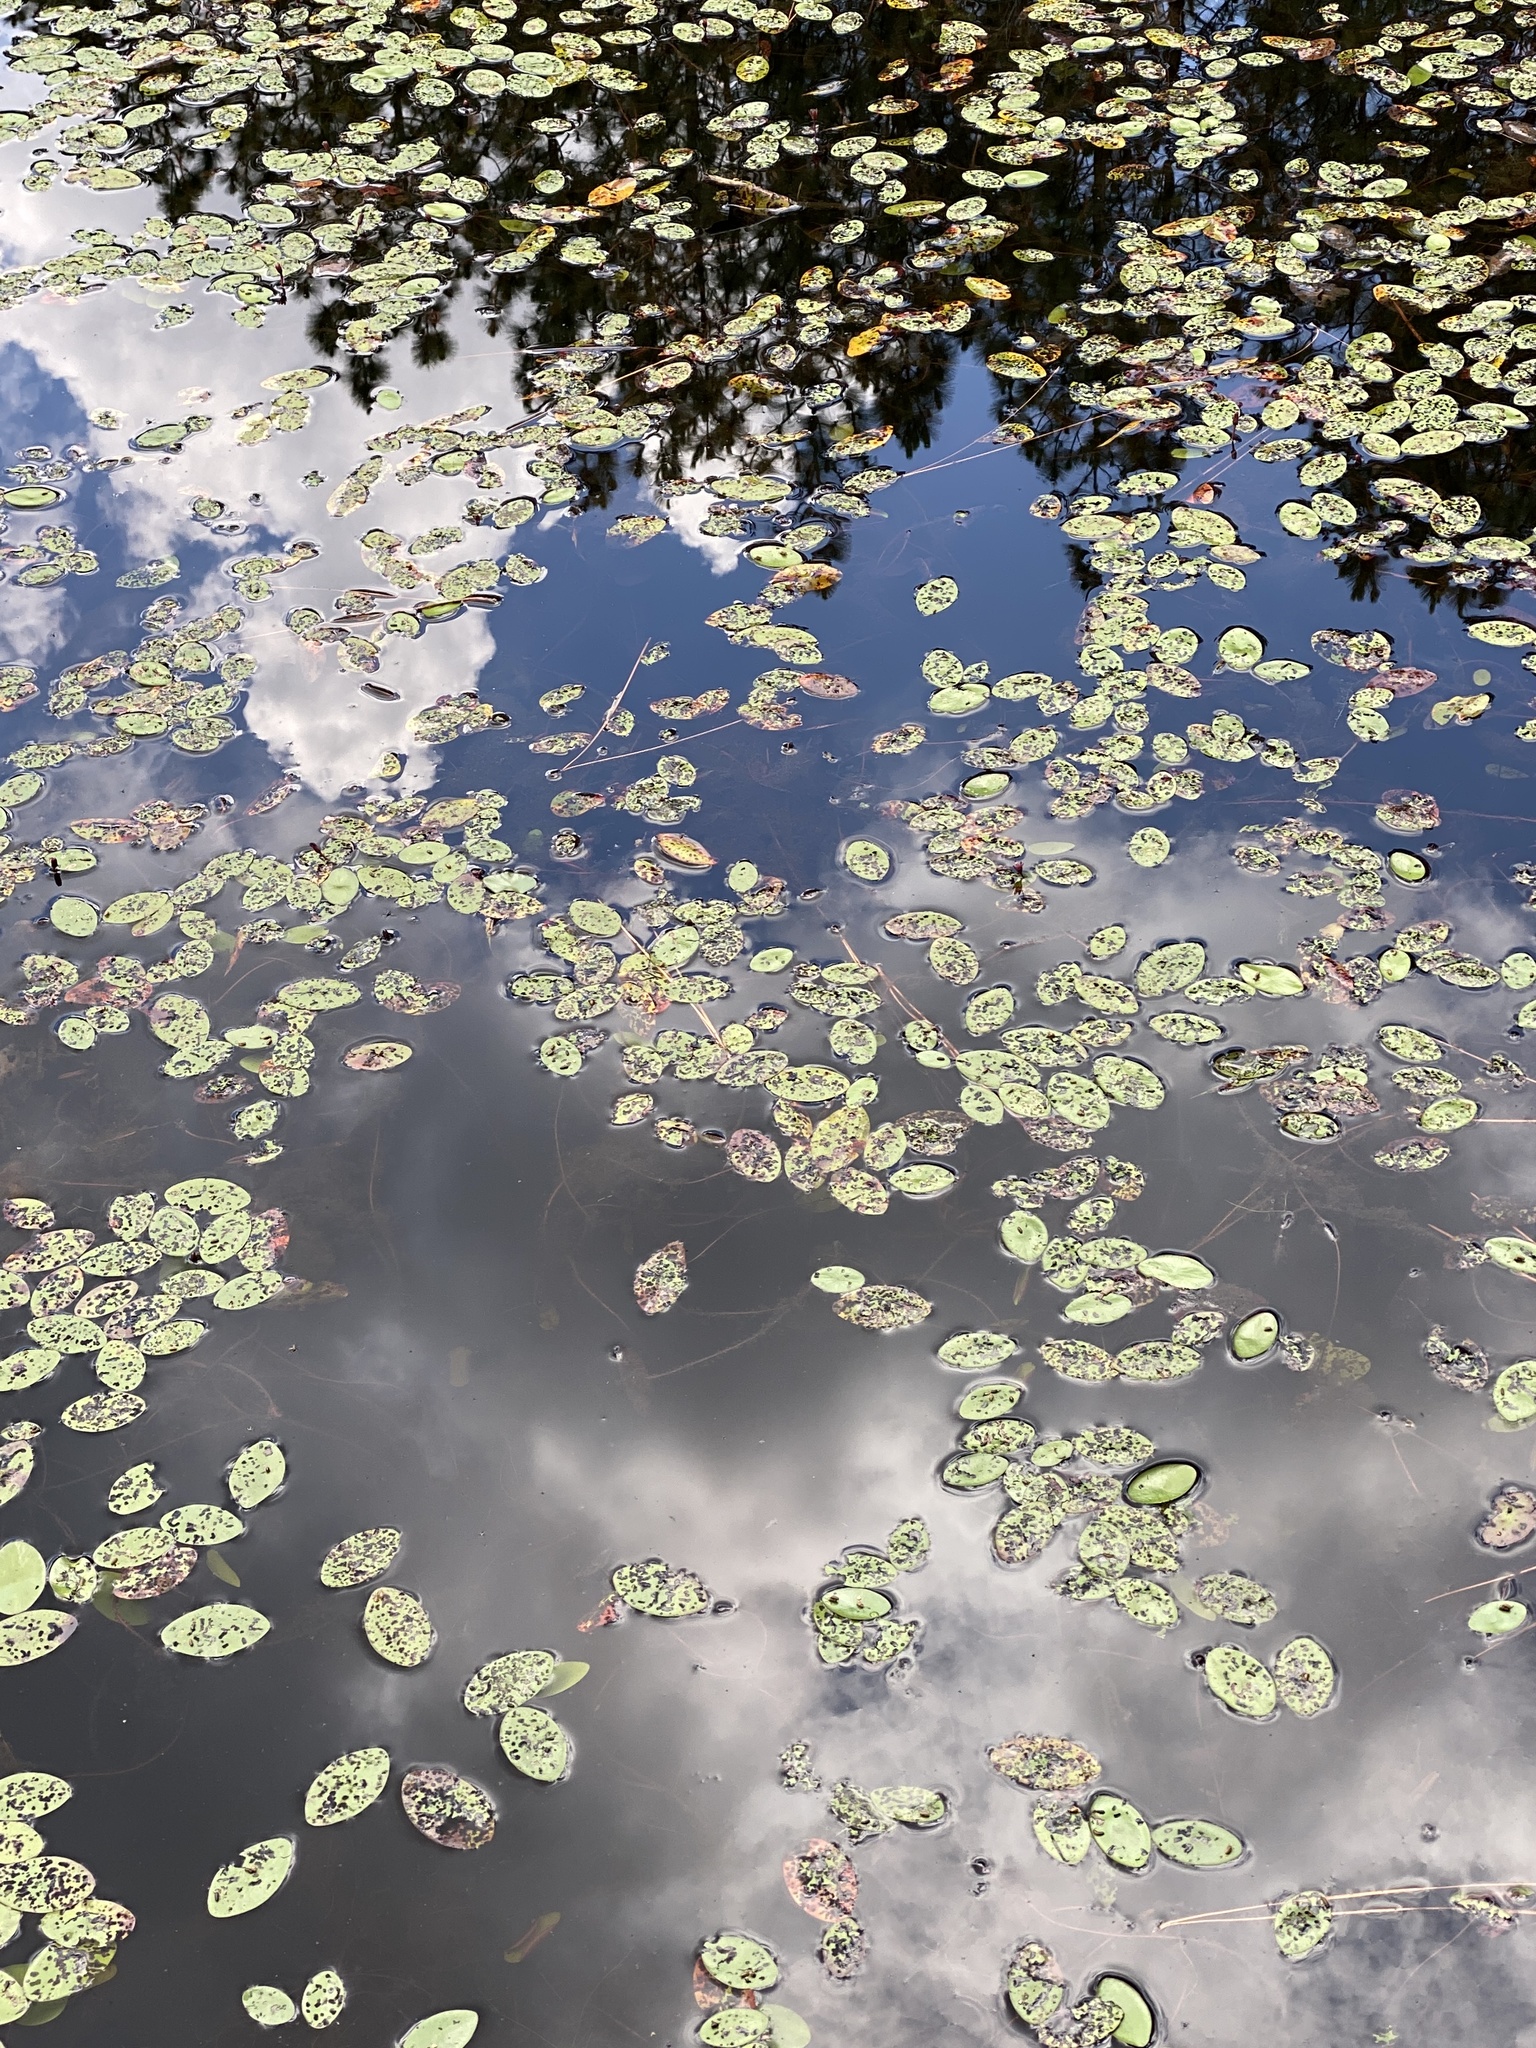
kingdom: Plantae
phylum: Tracheophyta
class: Magnoliopsida
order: Nymphaeales
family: Cabombaceae
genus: Brasenia
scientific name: Brasenia schreberi
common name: Water-shield
